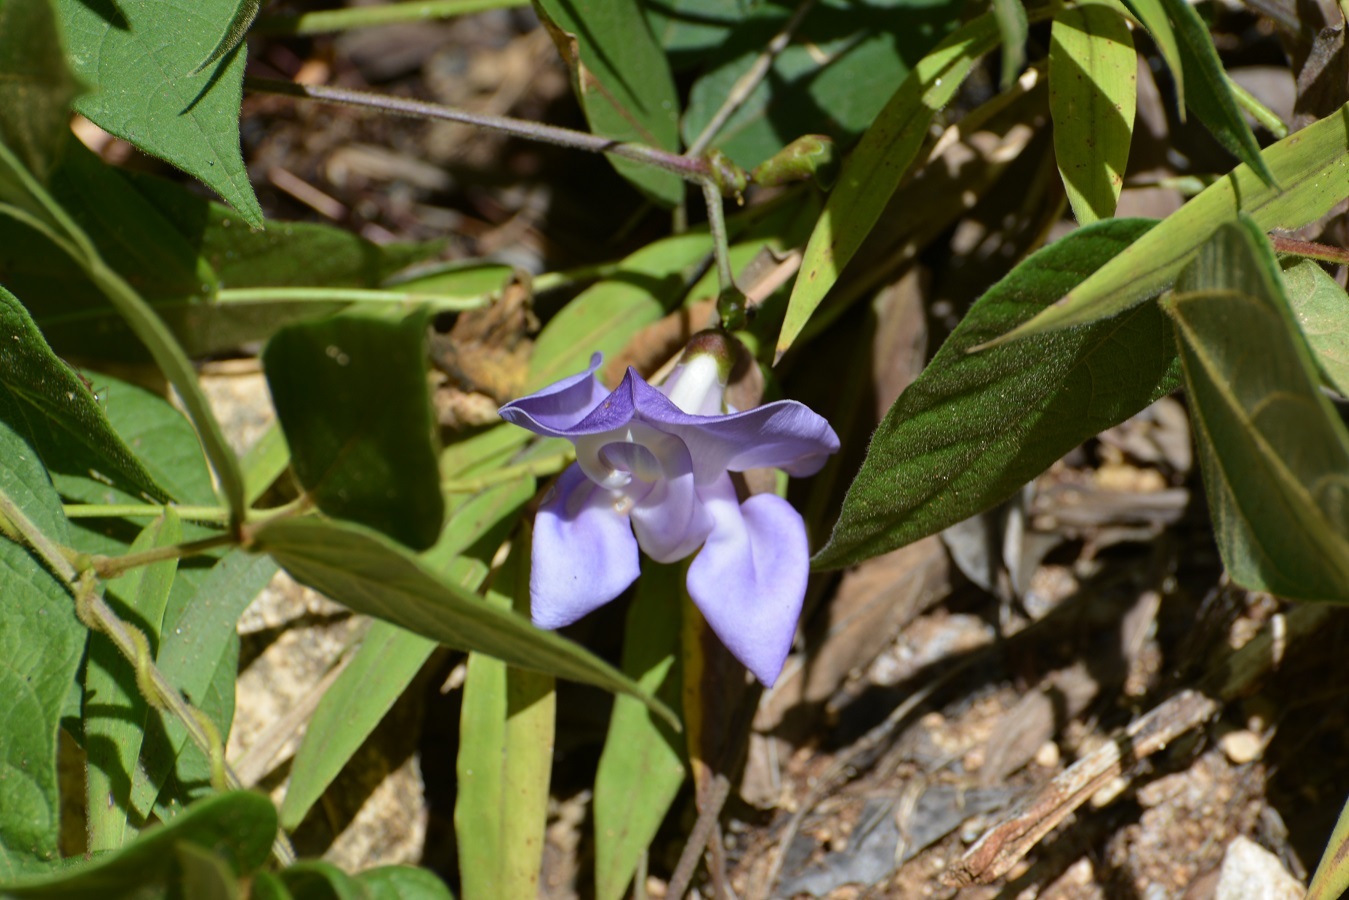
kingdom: Plantae
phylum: Tracheophyta
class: Magnoliopsida
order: Fabales
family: Fabaceae
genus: Leptospron
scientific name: Leptospron adenanthum
